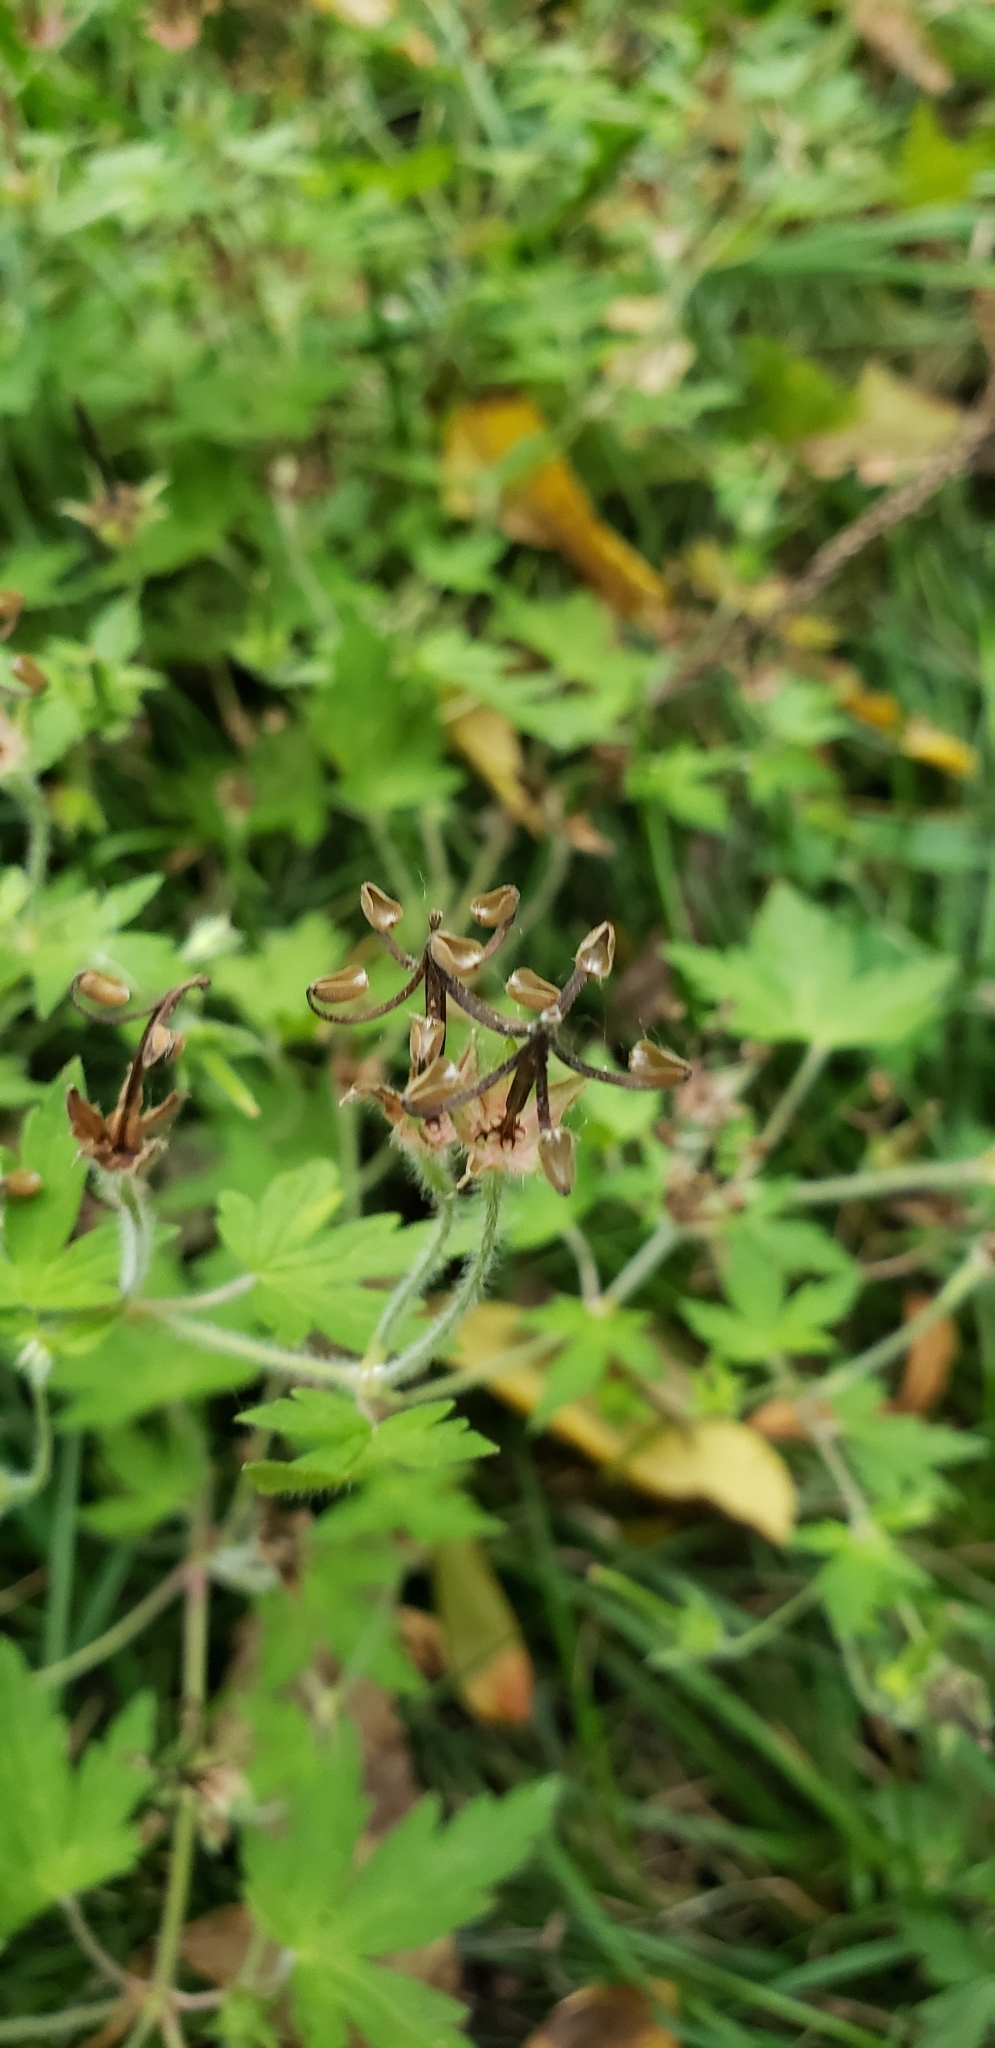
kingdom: Plantae
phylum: Tracheophyta
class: Magnoliopsida
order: Geraniales
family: Geraniaceae
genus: Geranium
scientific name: Geranium sibiricum
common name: Siberian crane's-bill
